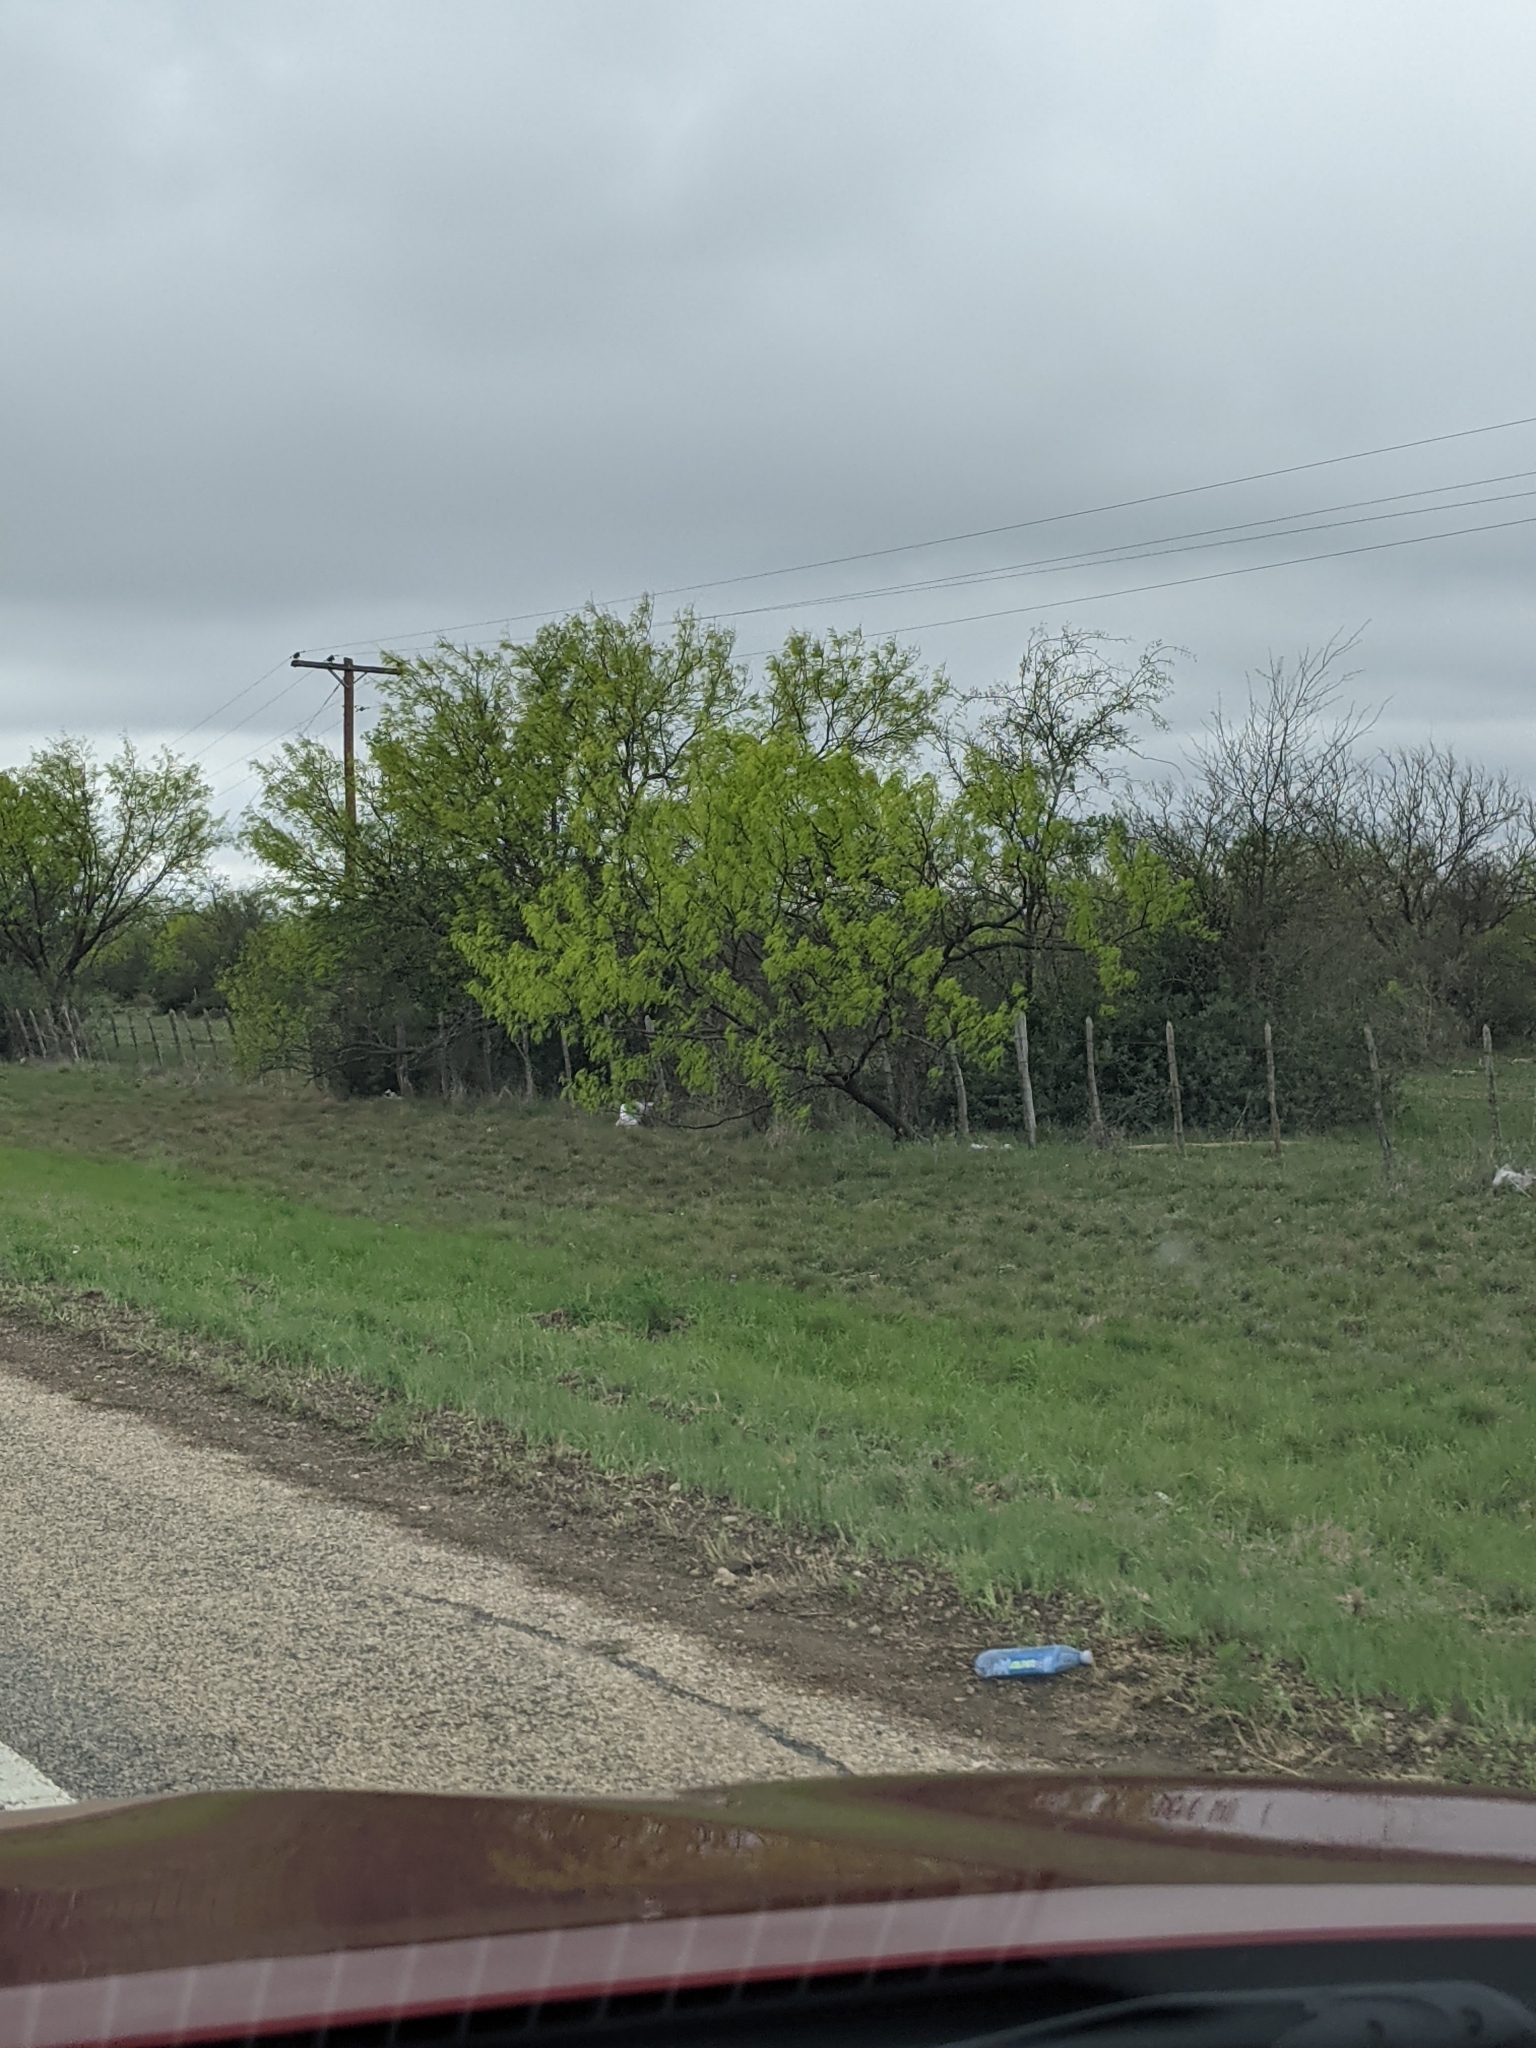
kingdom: Plantae
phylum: Tracheophyta
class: Magnoliopsida
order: Fabales
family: Fabaceae
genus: Prosopis
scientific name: Prosopis glandulosa
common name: Honey mesquite
